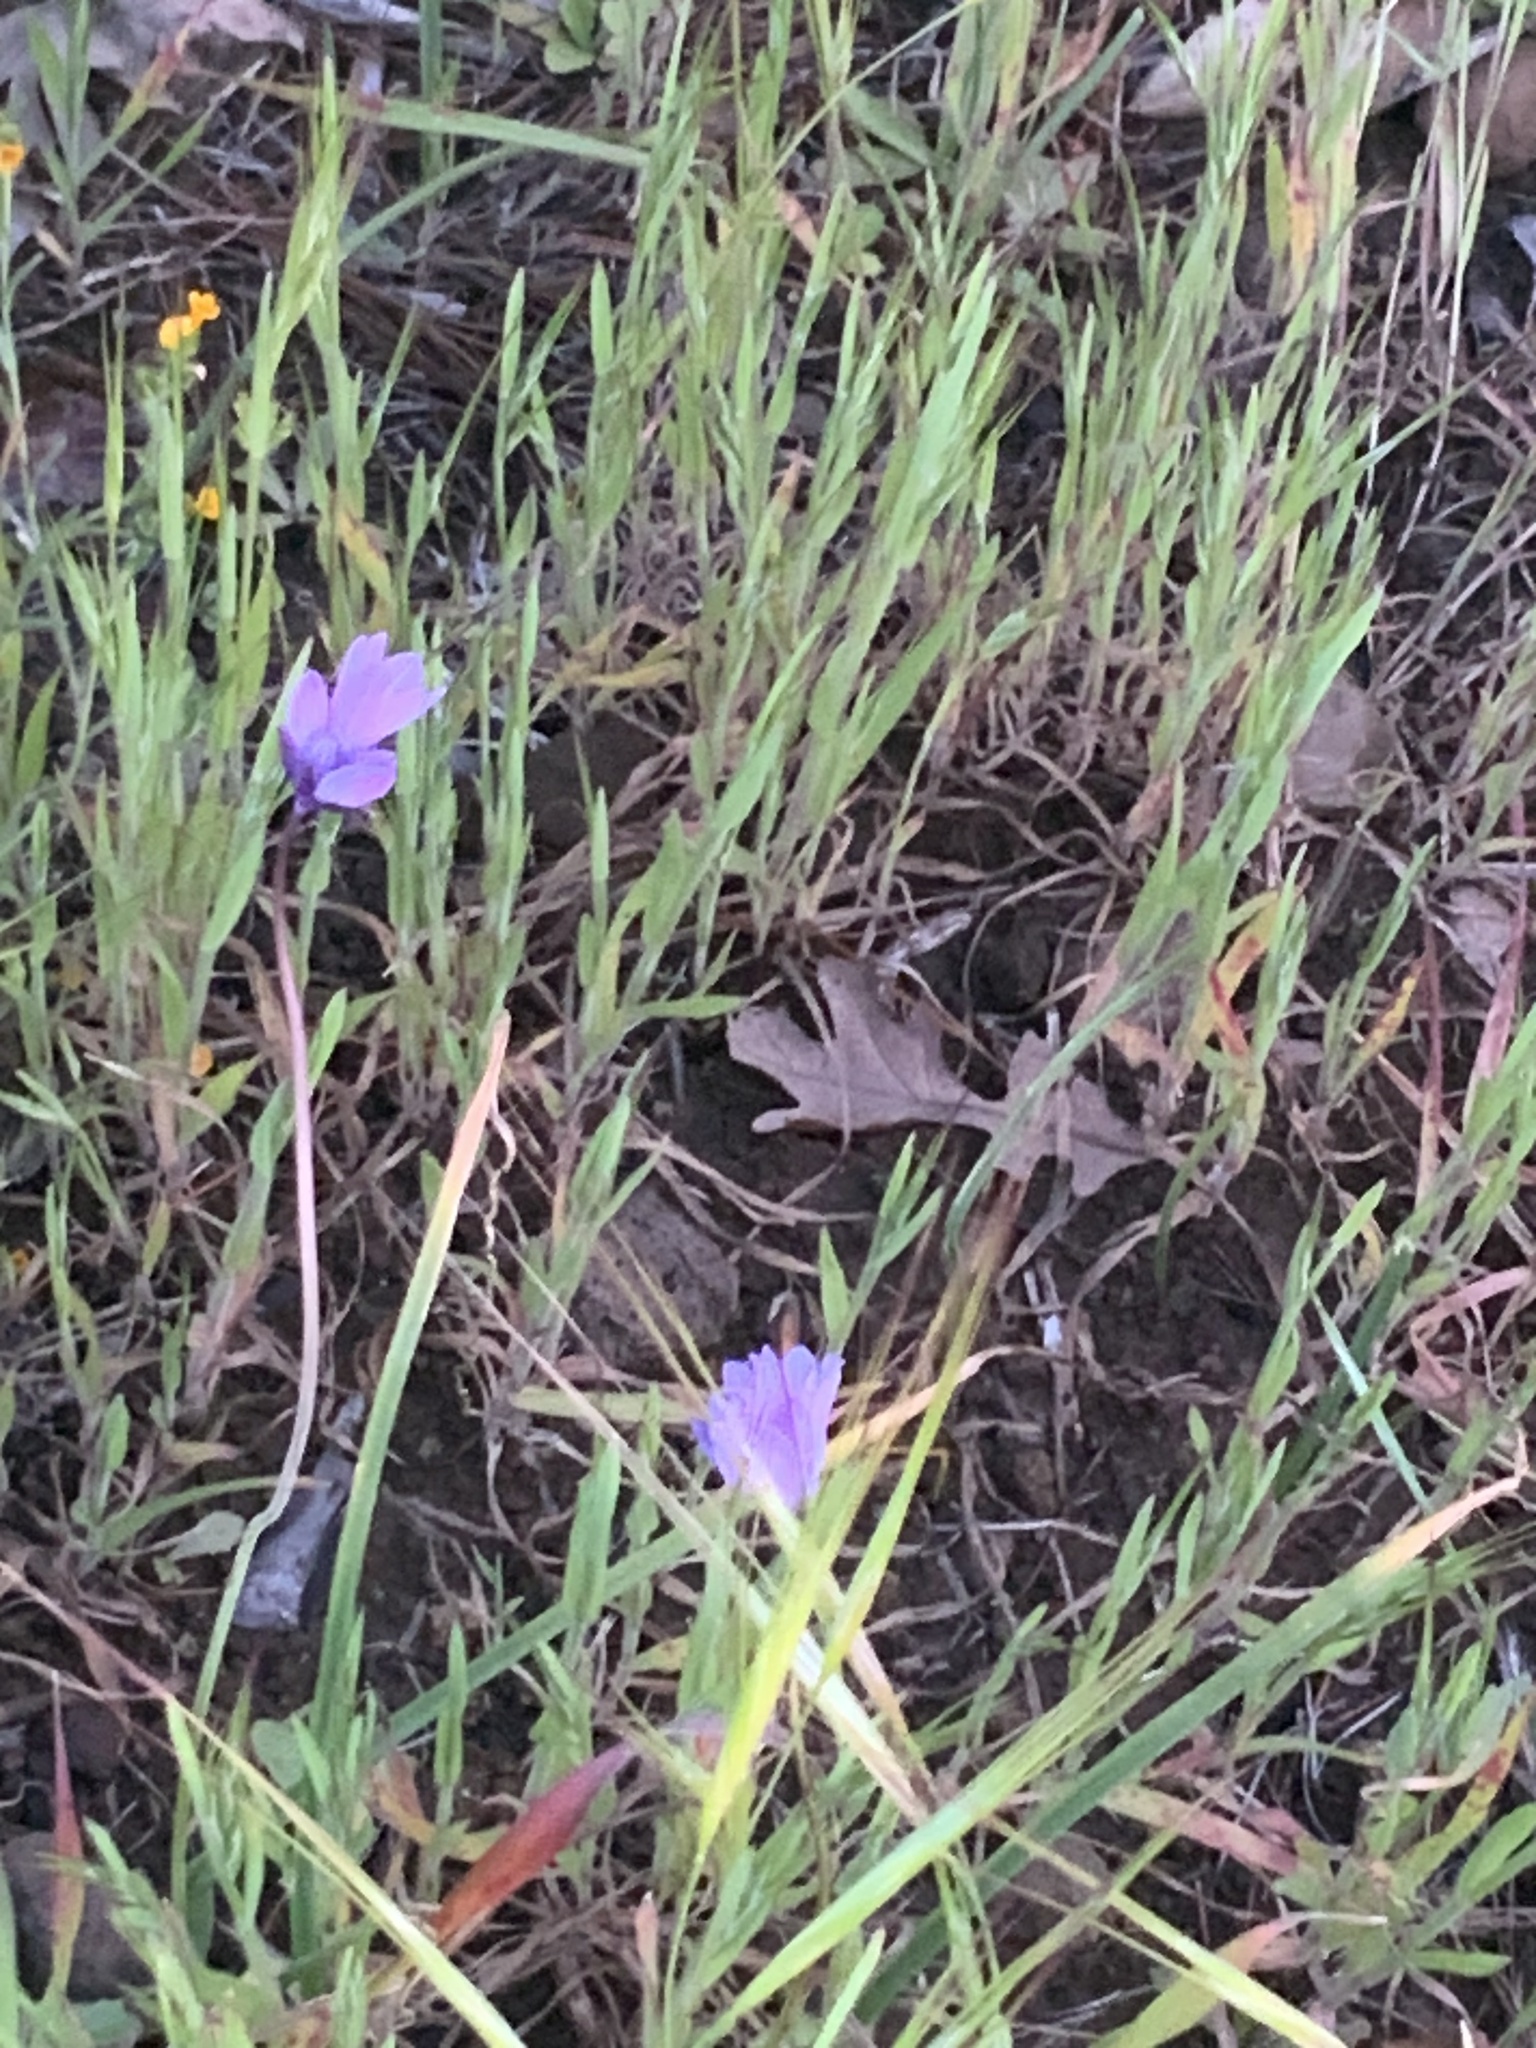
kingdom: Plantae
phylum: Tracheophyta
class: Liliopsida
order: Asparagales
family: Asparagaceae
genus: Dipterostemon
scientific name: Dipterostemon capitatus
